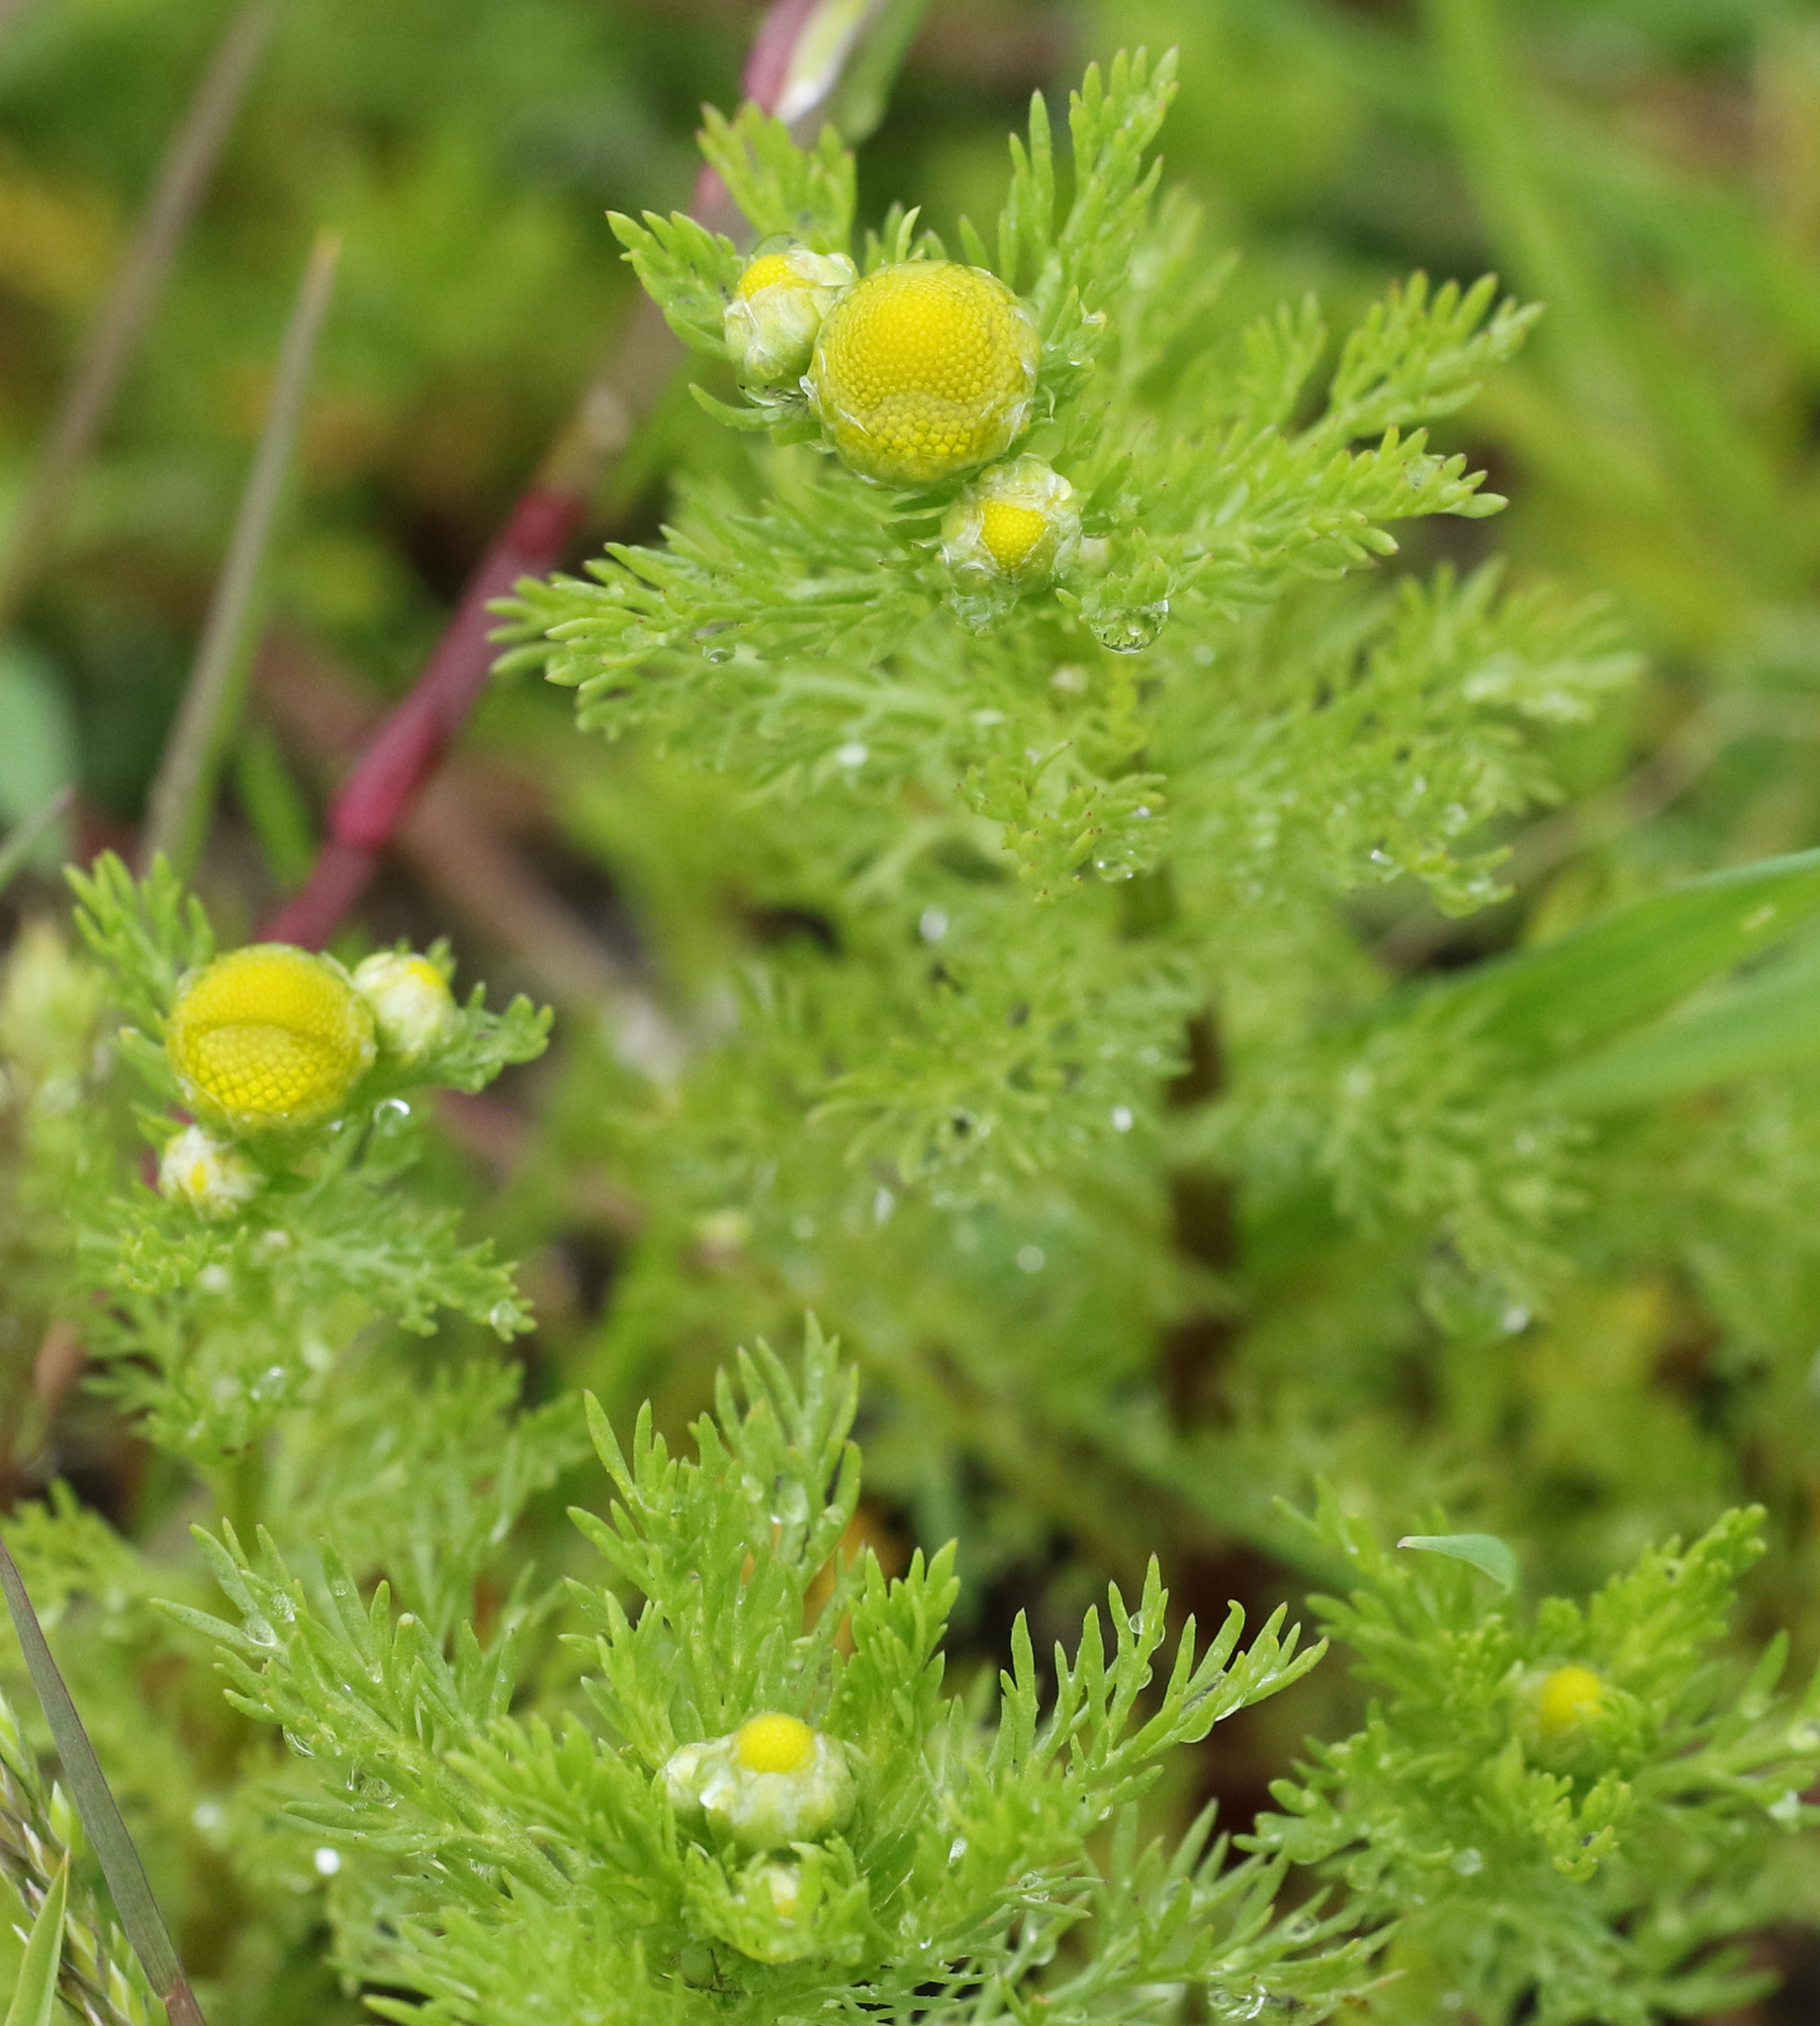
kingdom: Plantae
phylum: Tracheophyta
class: Magnoliopsida
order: Asterales
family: Asteraceae
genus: Matricaria
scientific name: Matricaria discoidea
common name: Disc mayweed
